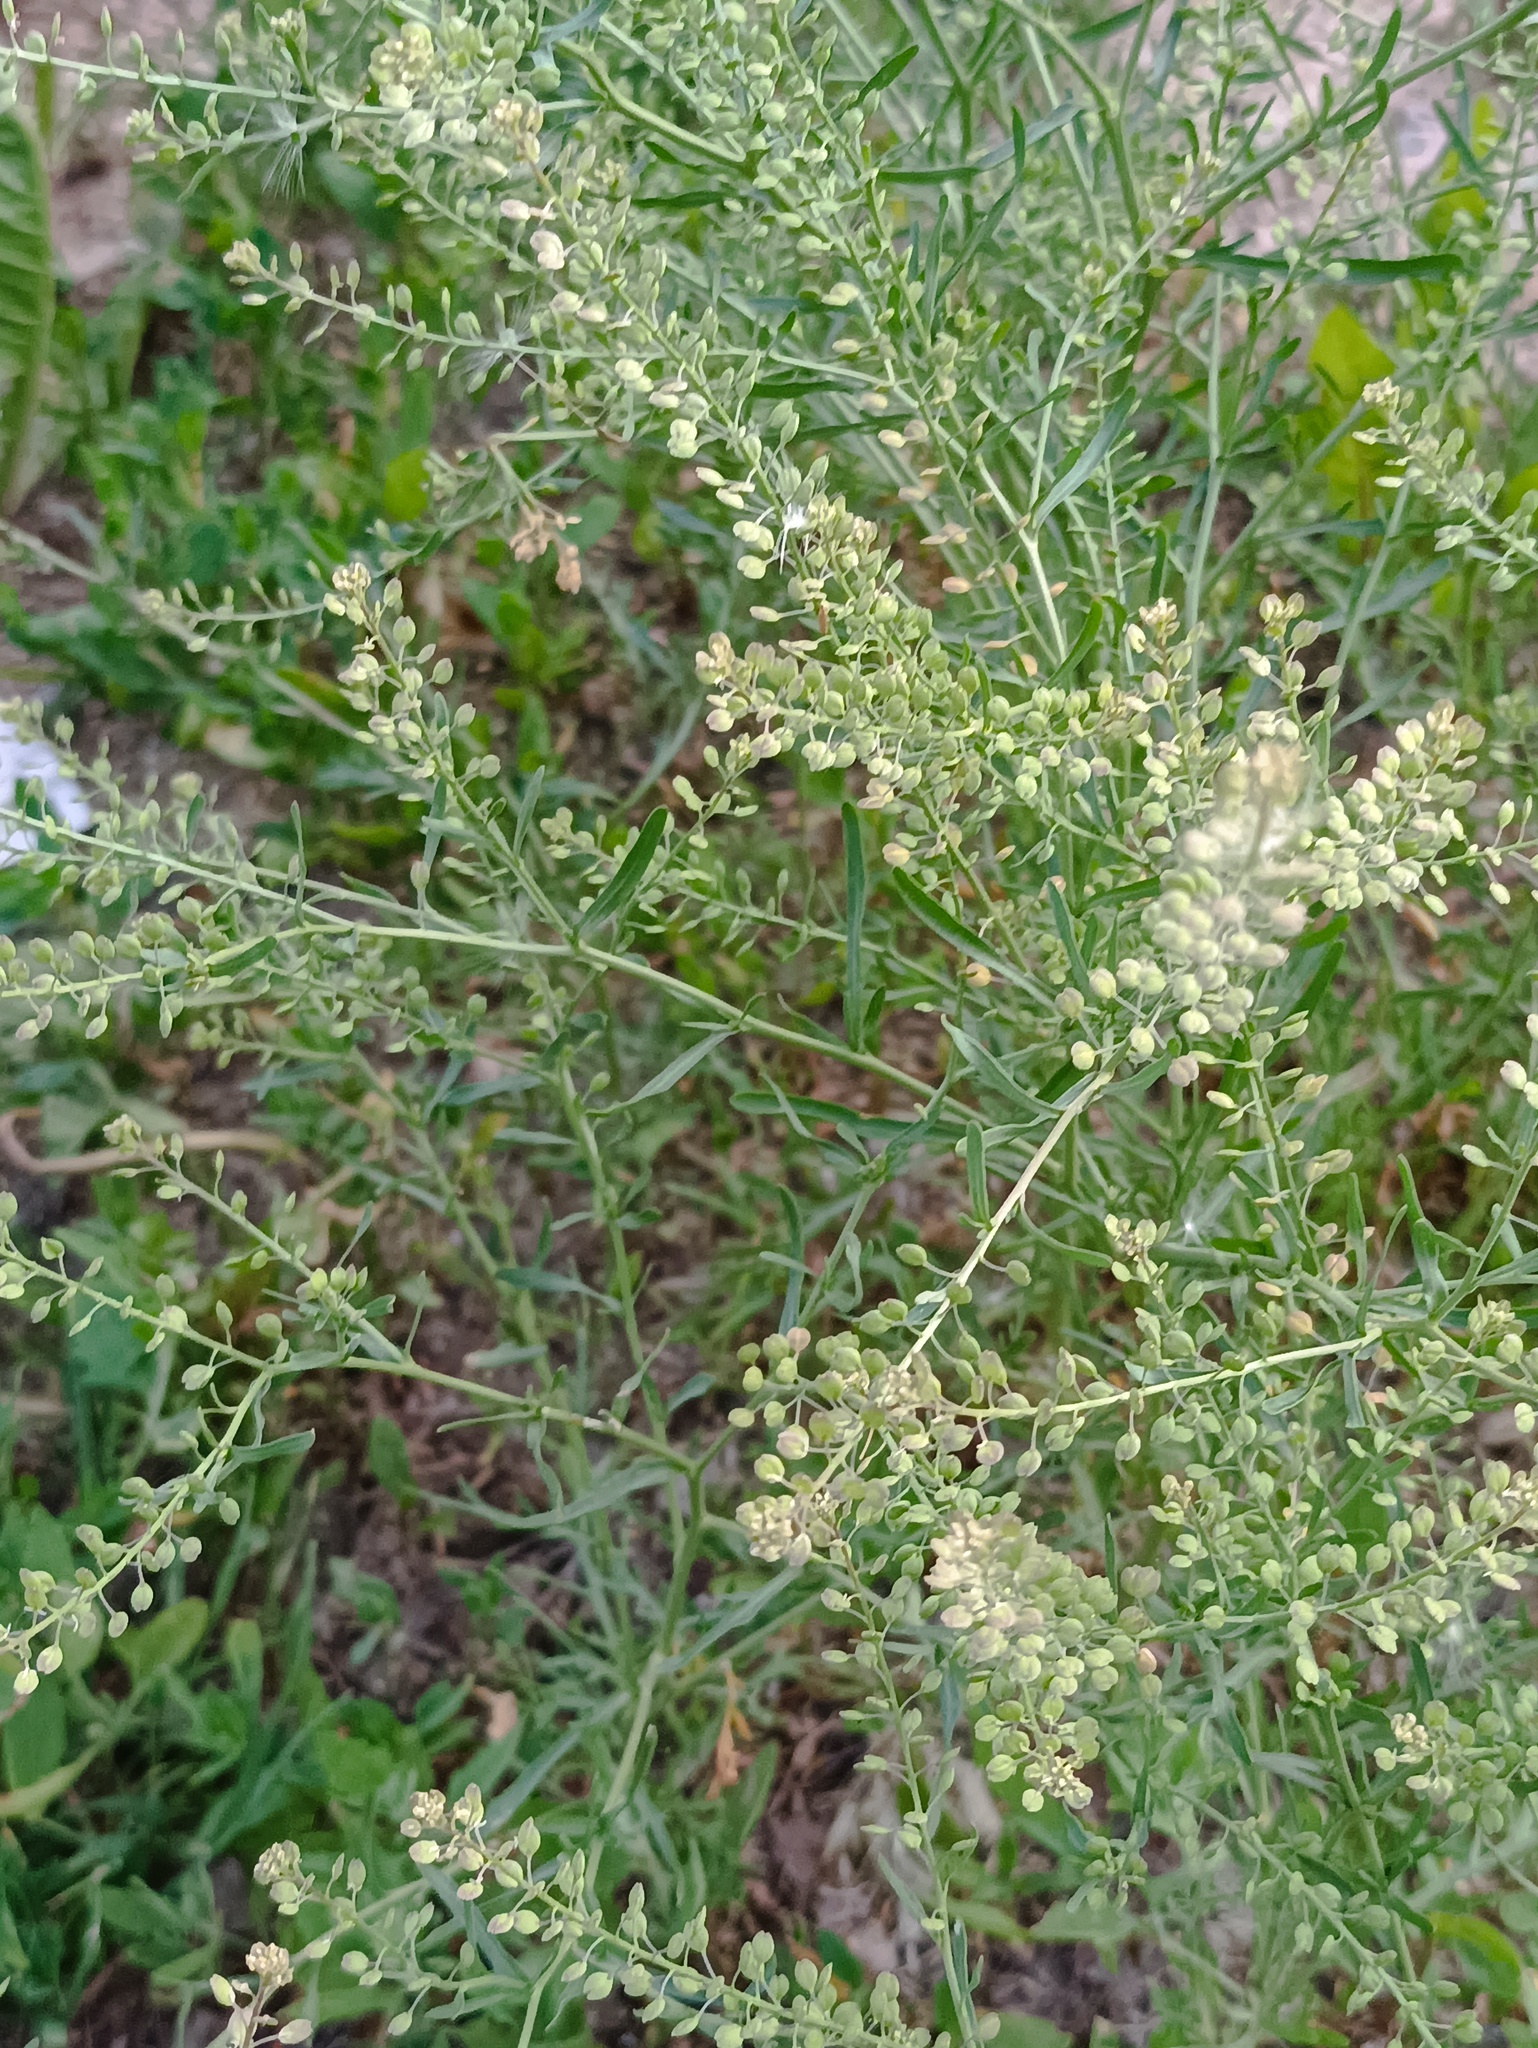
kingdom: Plantae
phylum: Tracheophyta
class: Magnoliopsida
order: Brassicales
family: Brassicaceae
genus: Lepidium
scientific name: Lepidium ruderale
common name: Narrow-leaved pepperwort
